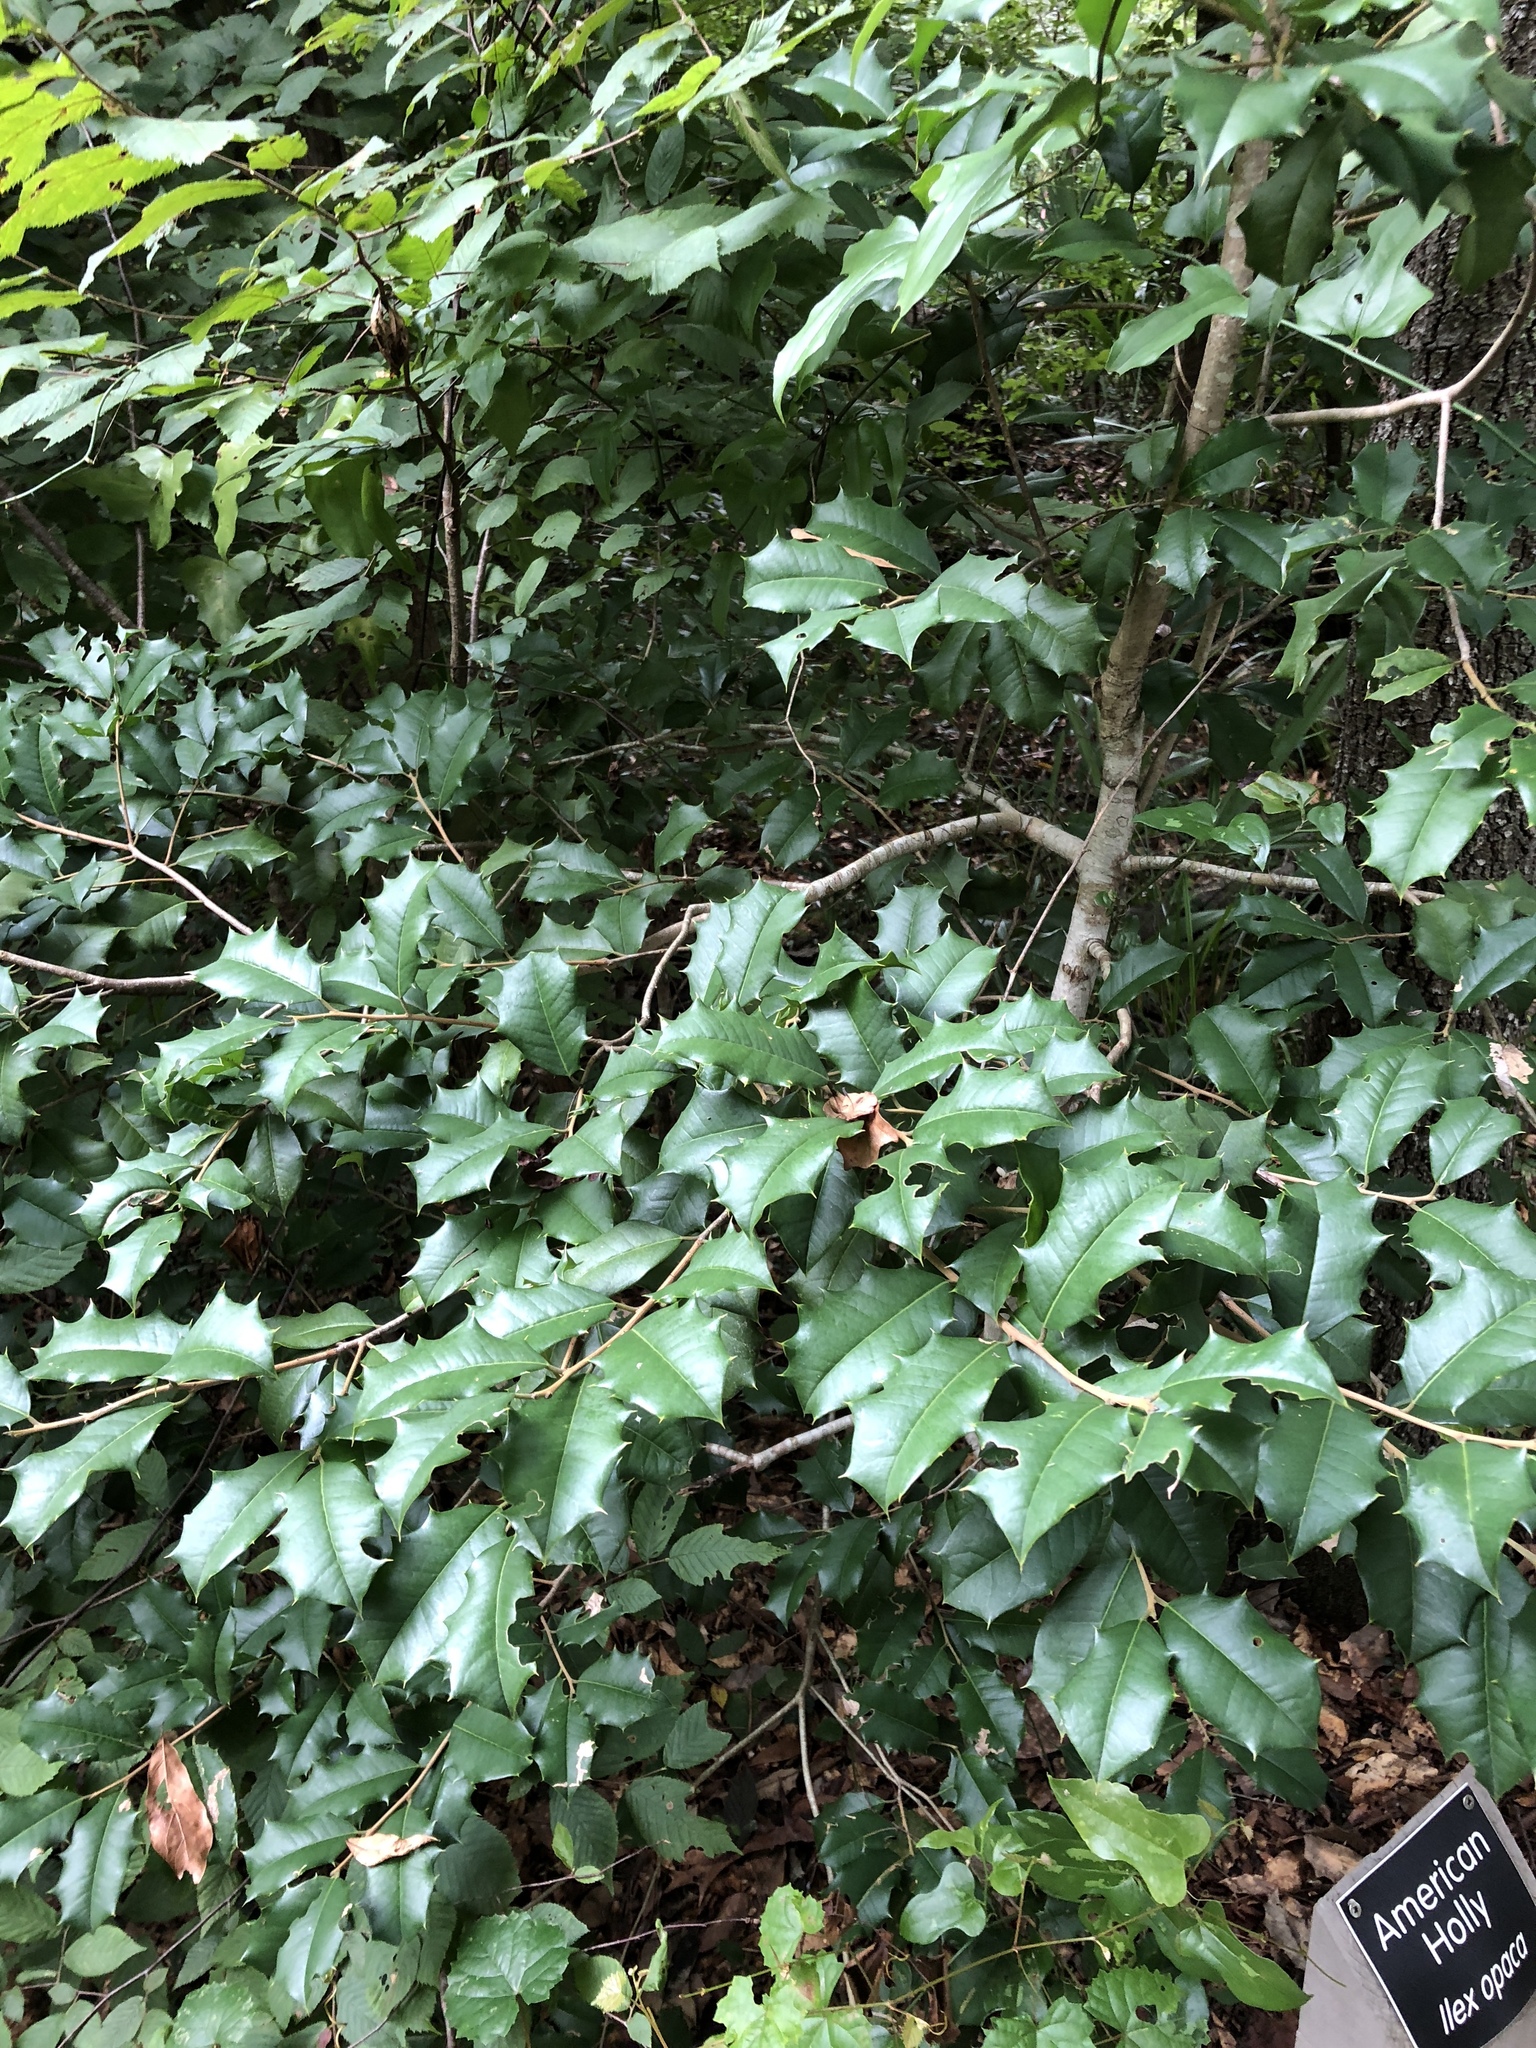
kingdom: Plantae
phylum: Tracheophyta
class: Magnoliopsida
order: Aquifoliales
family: Aquifoliaceae
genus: Ilex
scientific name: Ilex opaca
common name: American holly
